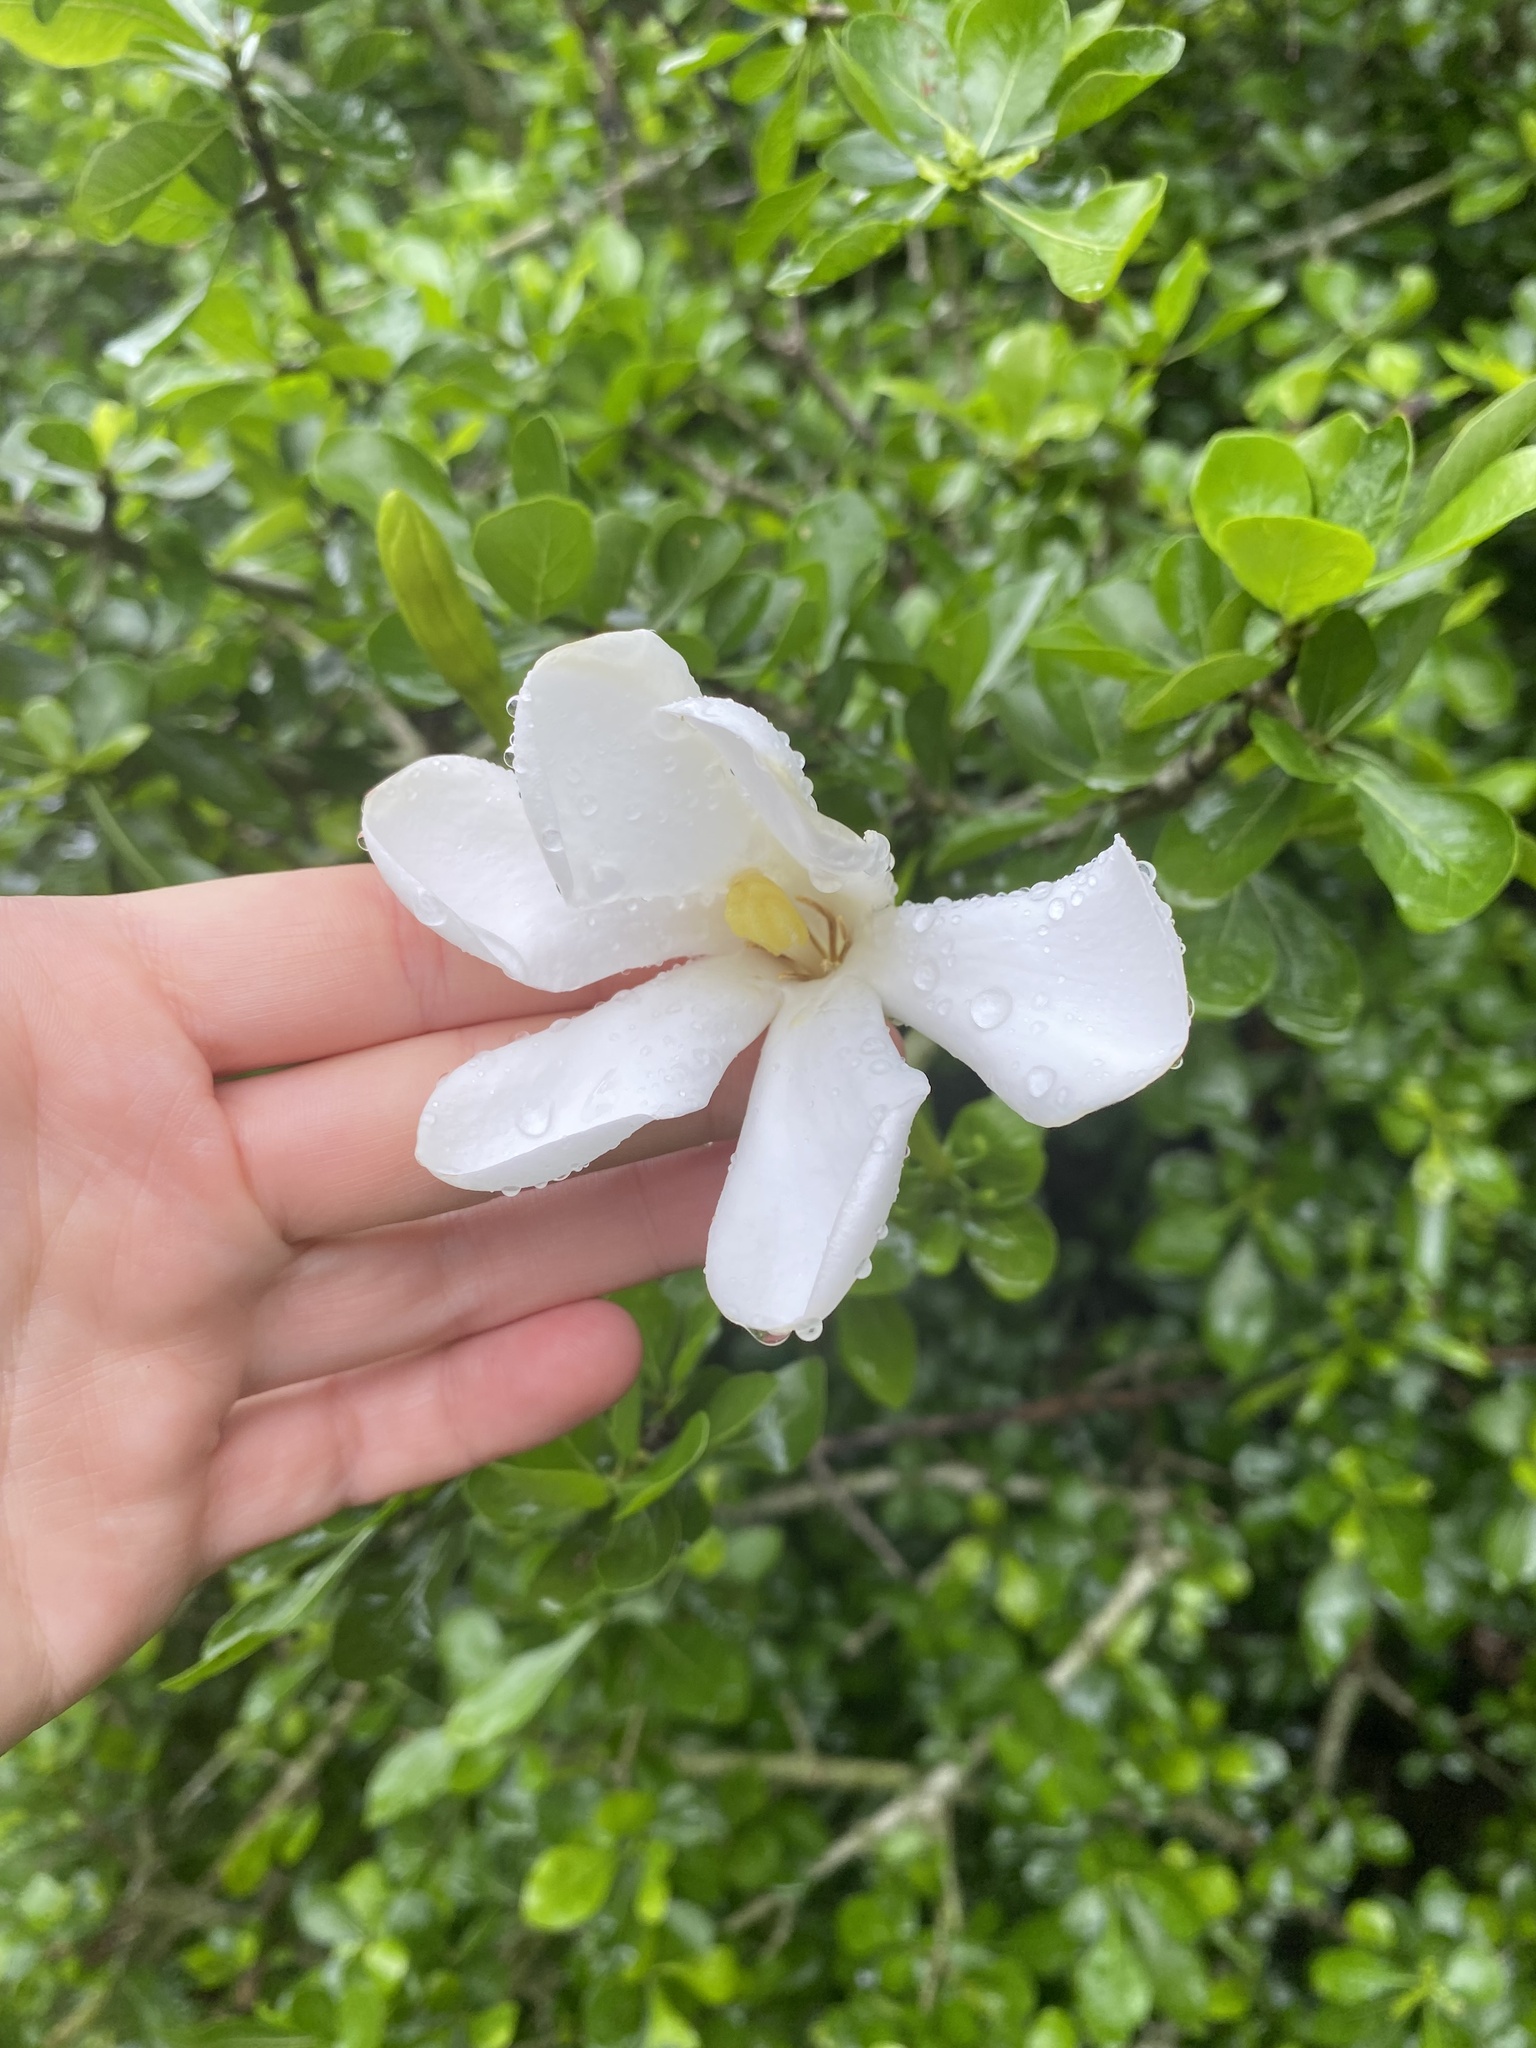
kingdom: Plantae
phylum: Tracheophyta
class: Magnoliopsida
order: Gentianales
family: Rubiaceae
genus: Gardenia
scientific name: Gardenia thunbergia
